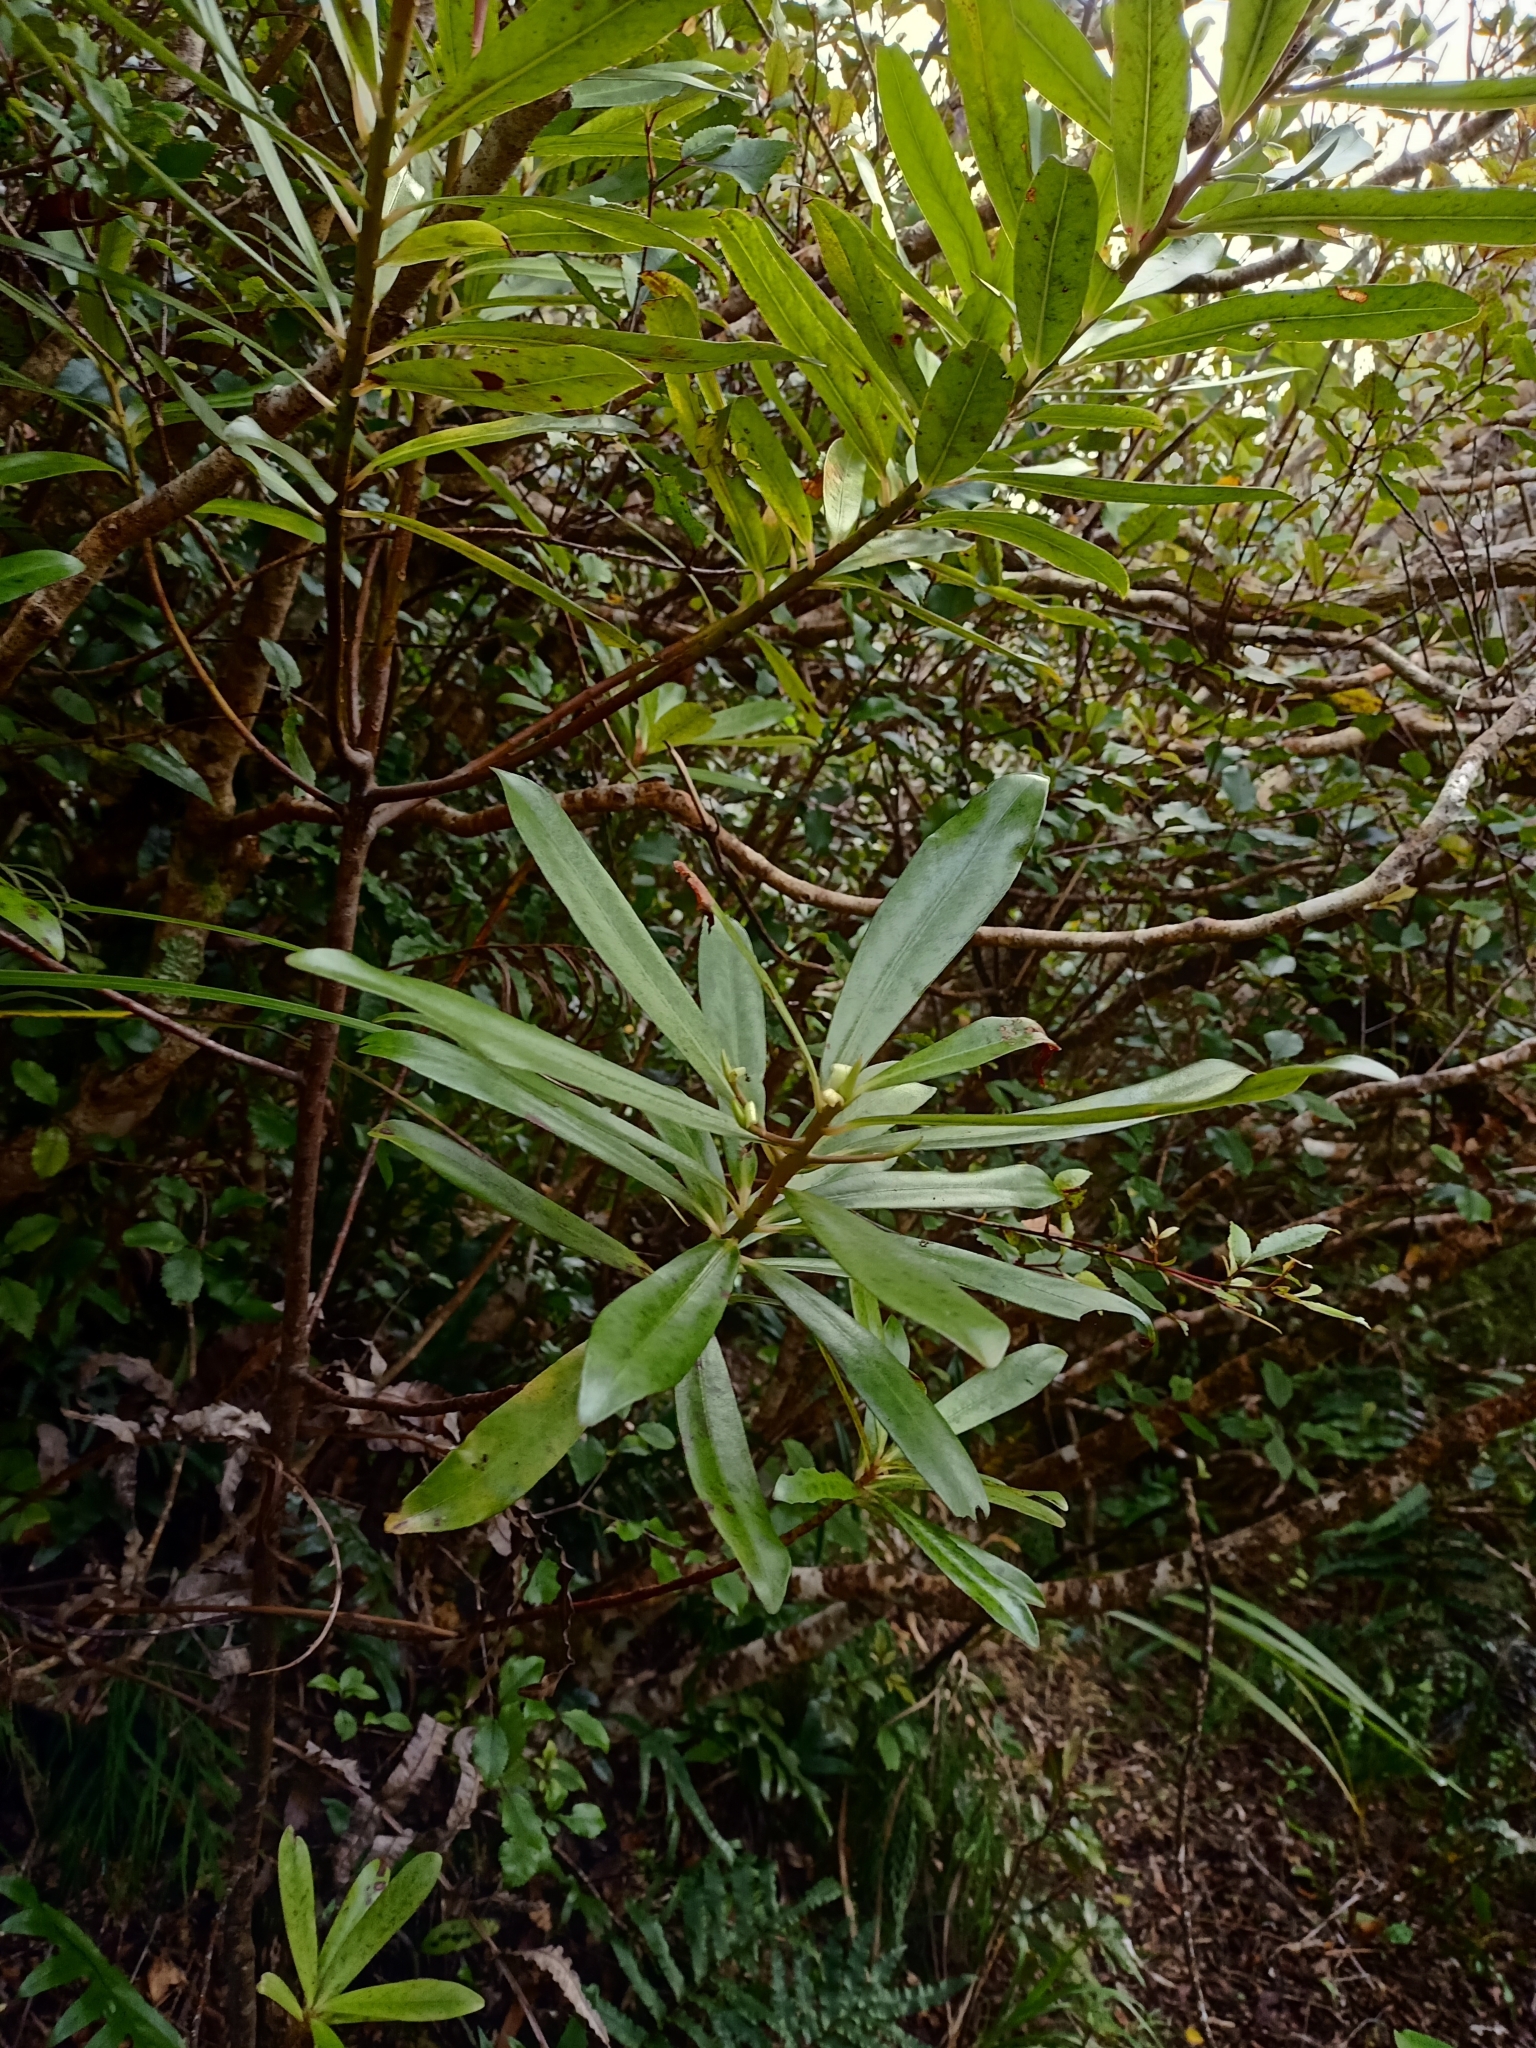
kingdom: Plantae
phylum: Tracheophyta
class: Magnoliopsida
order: Ericales
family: Primulaceae
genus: Myrsine
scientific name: Myrsine salicina
